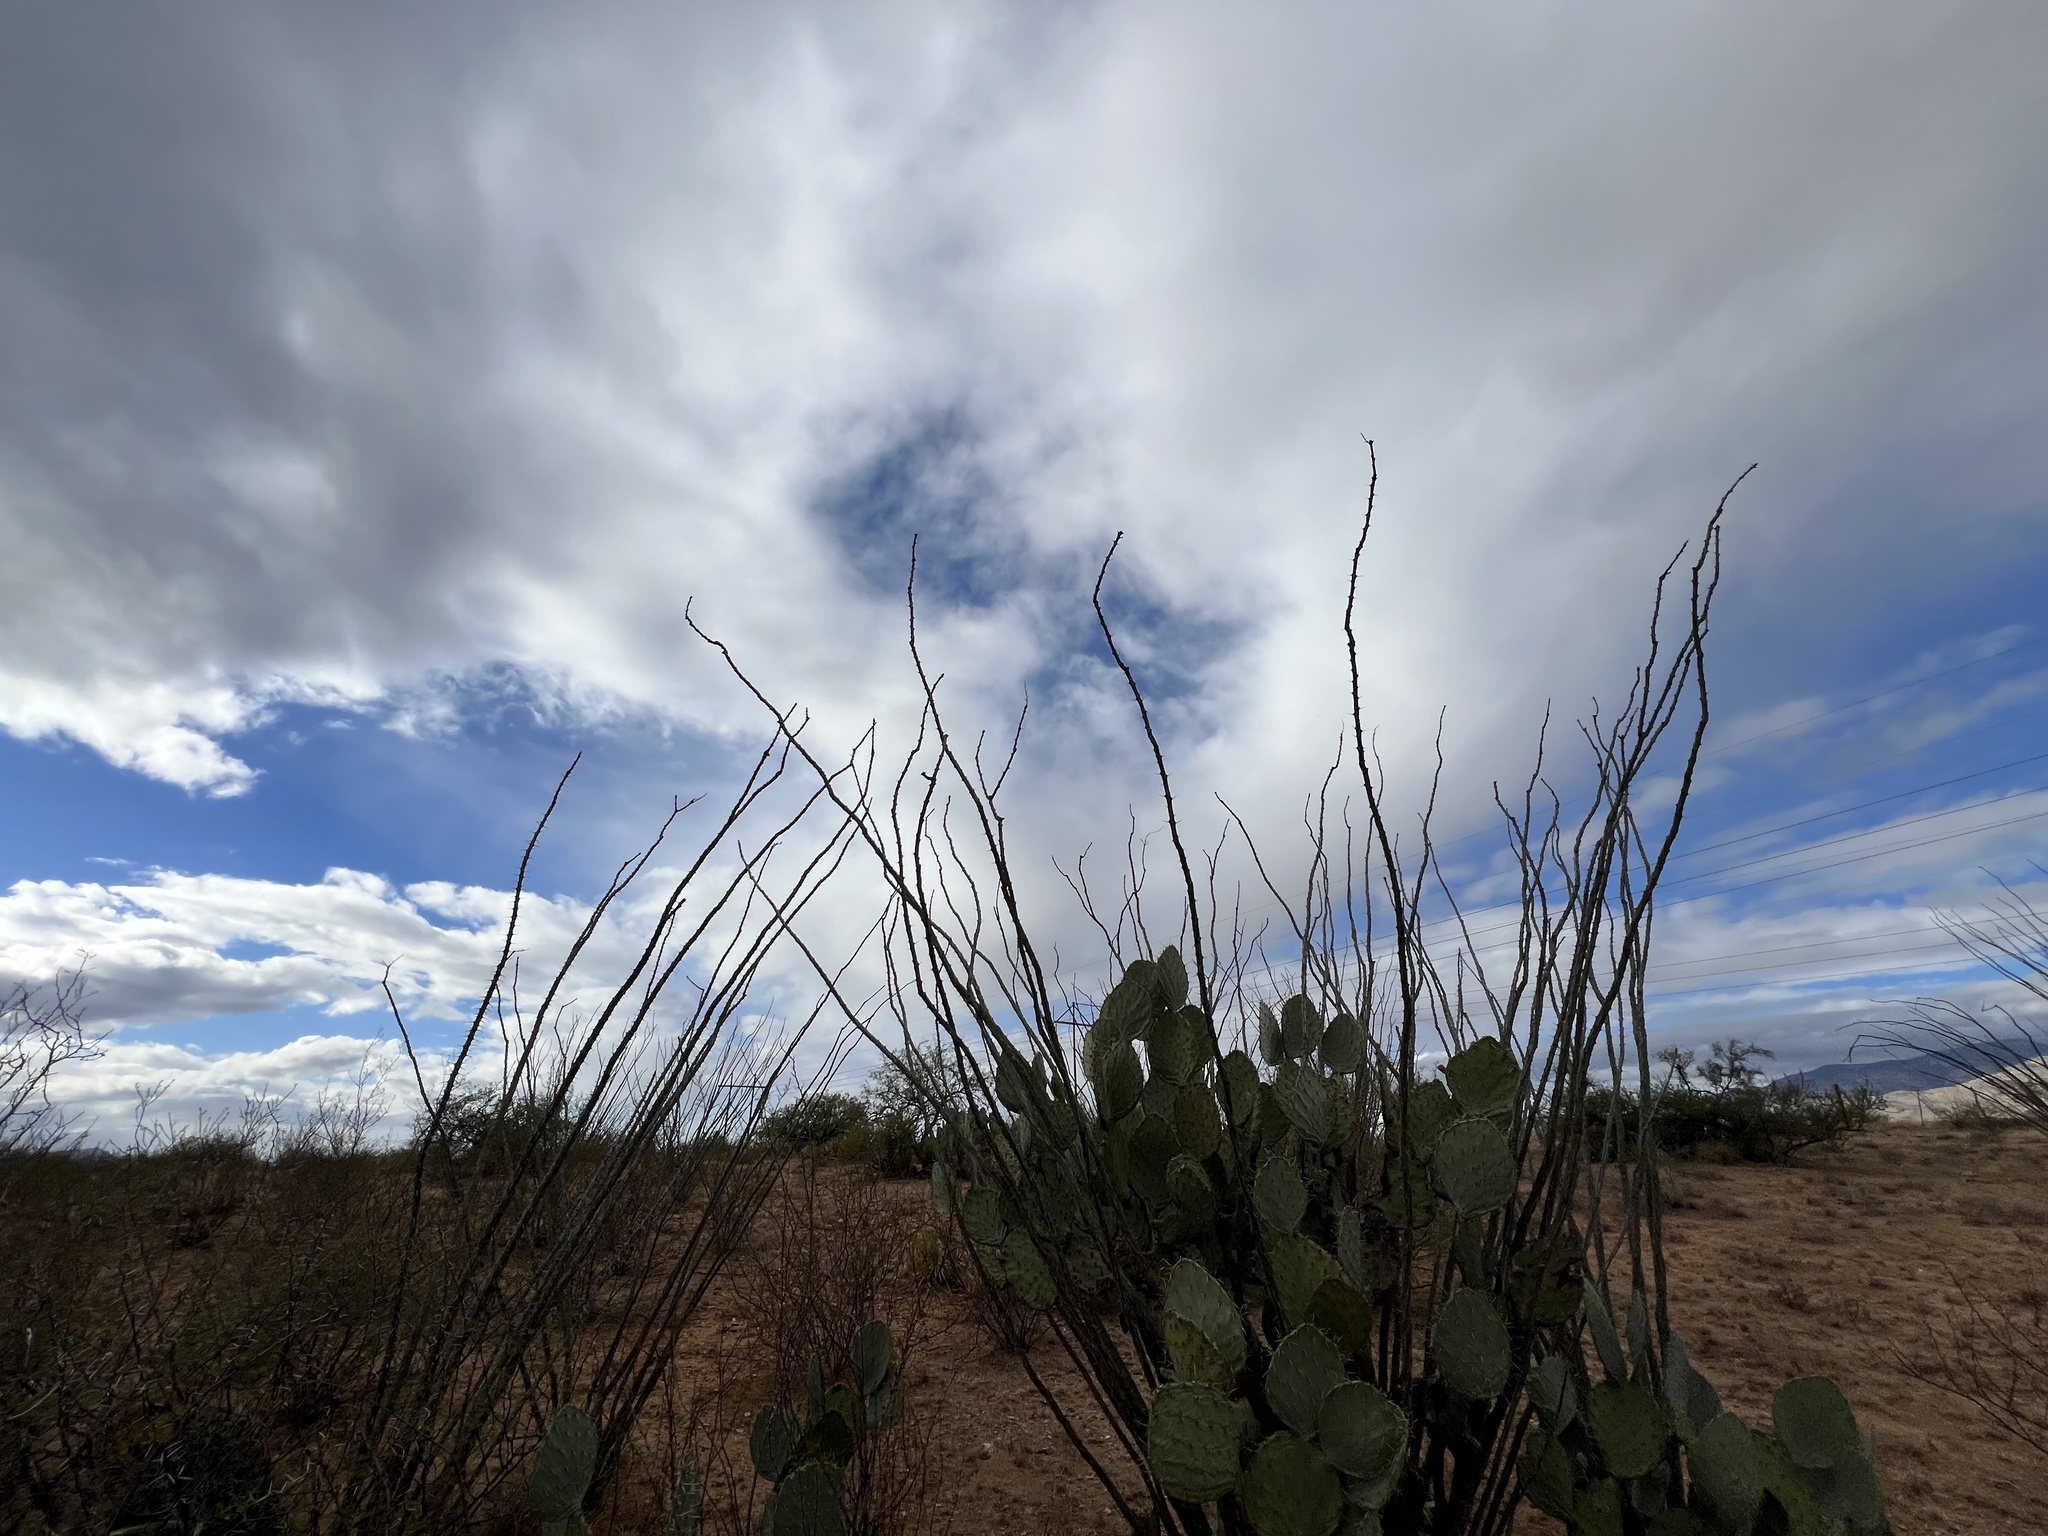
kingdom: Plantae
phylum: Tracheophyta
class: Magnoliopsida
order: Ericales
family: Fouquieriaceae
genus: Fouquieria
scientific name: Fouquieria splendens
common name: Vine-cactus
